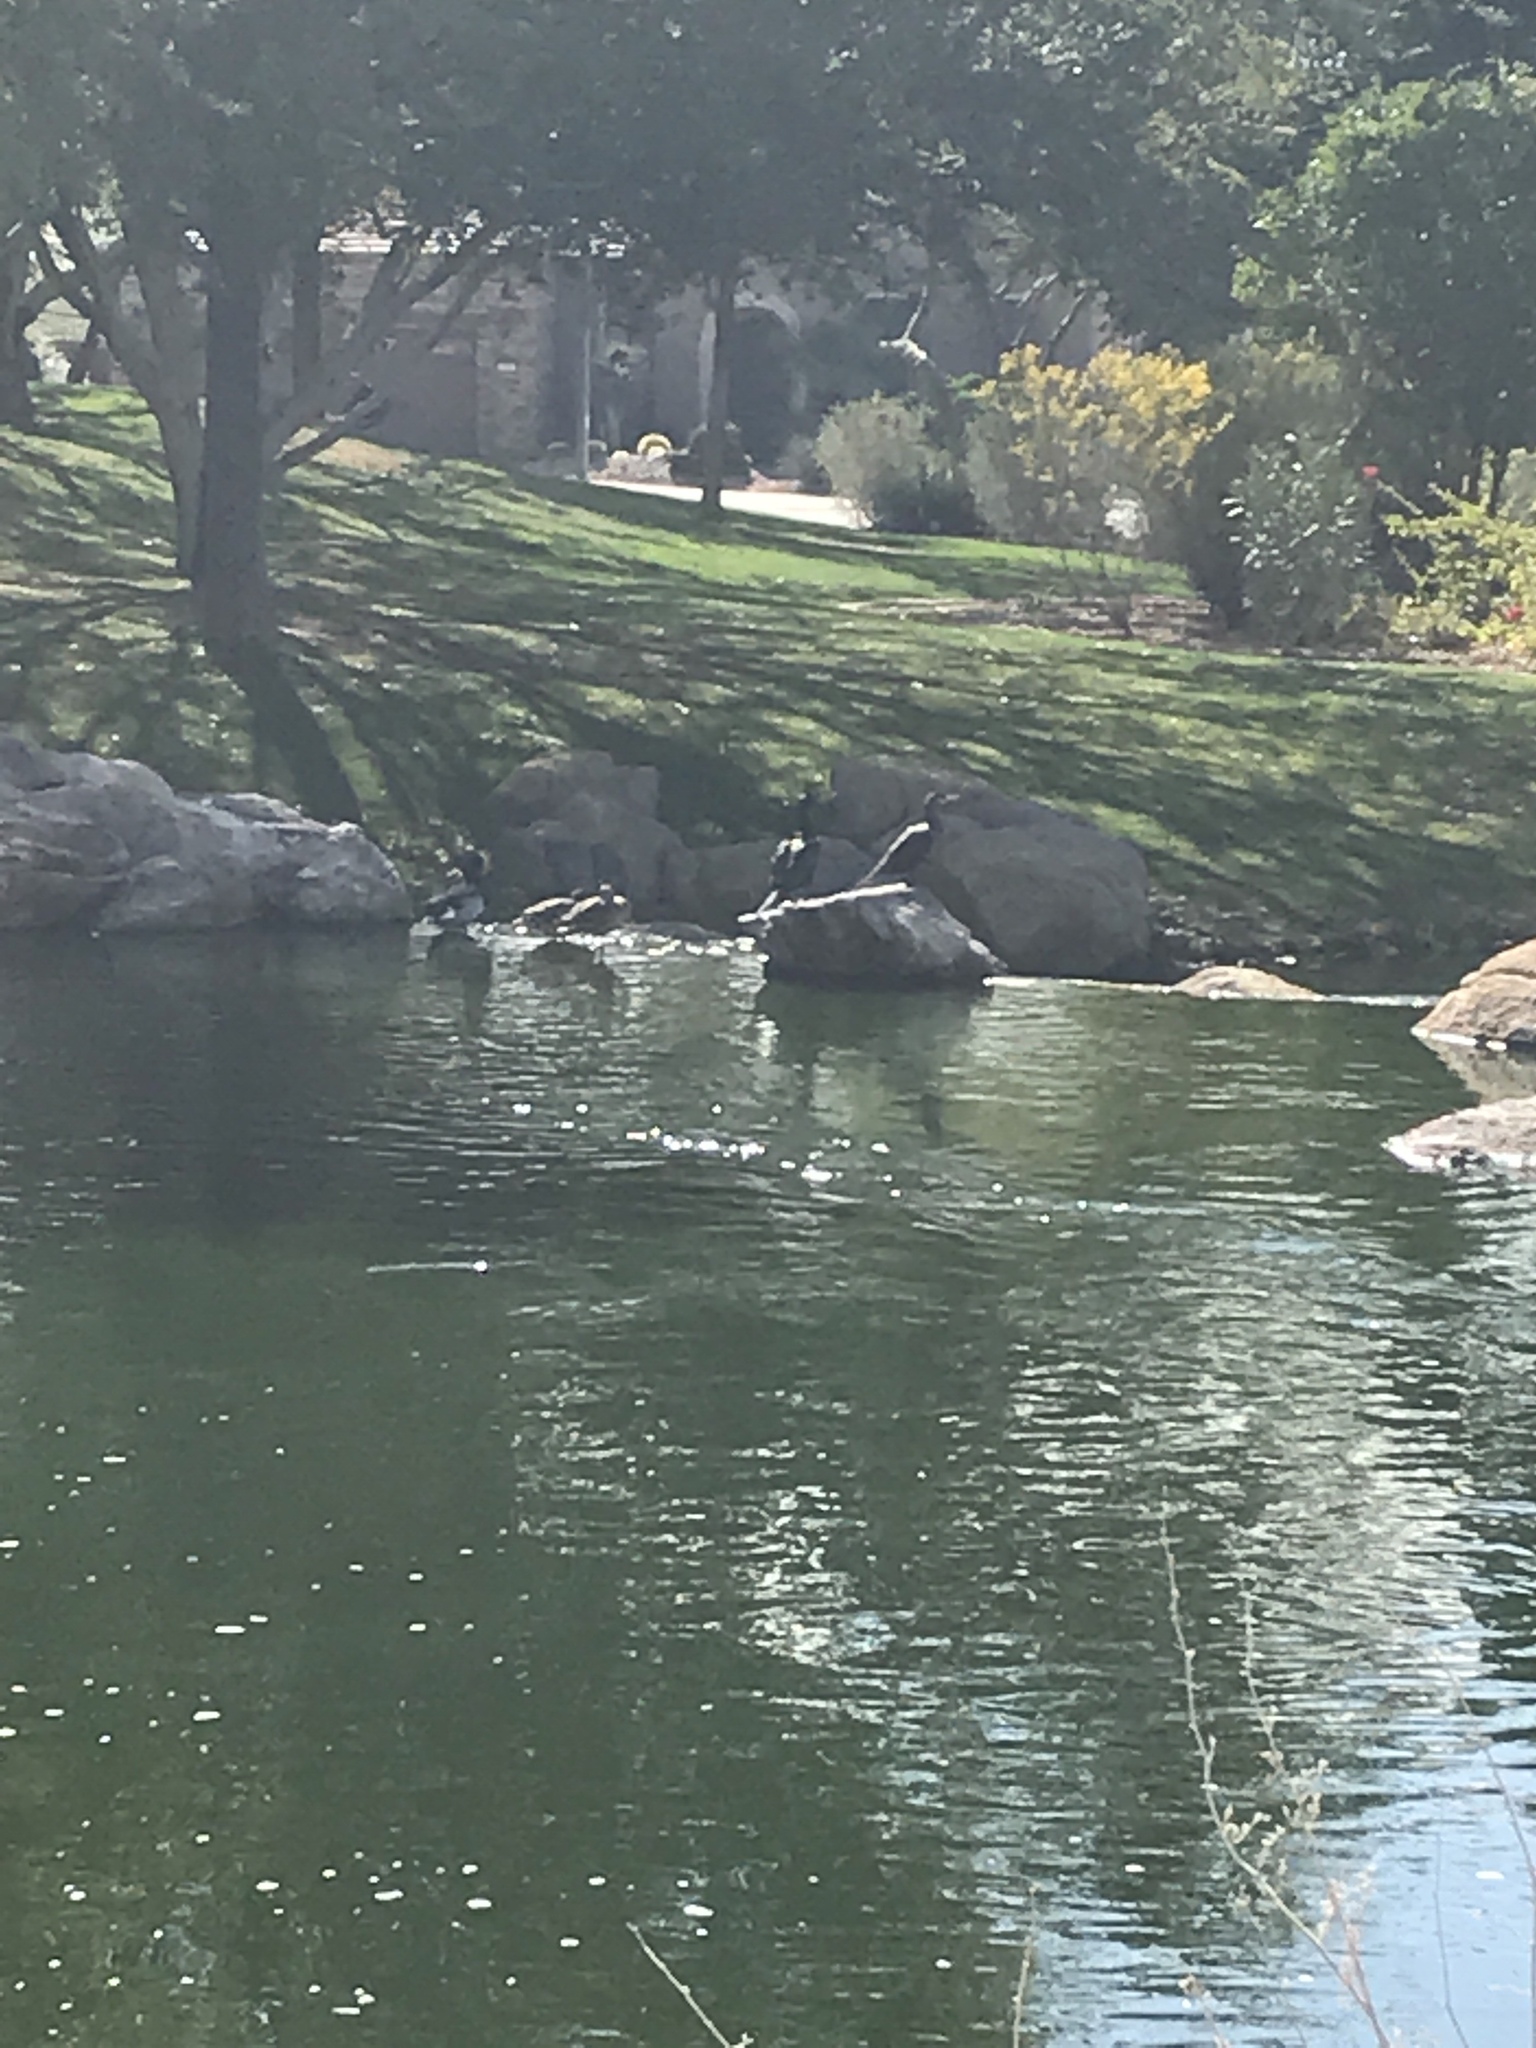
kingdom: Animalia
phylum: Chordata
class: Aves
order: Suliformes
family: Phalacrocoracidae
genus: Phalacrocorax
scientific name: Phalacrocorax brasilianus
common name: Neotropic cormorant
